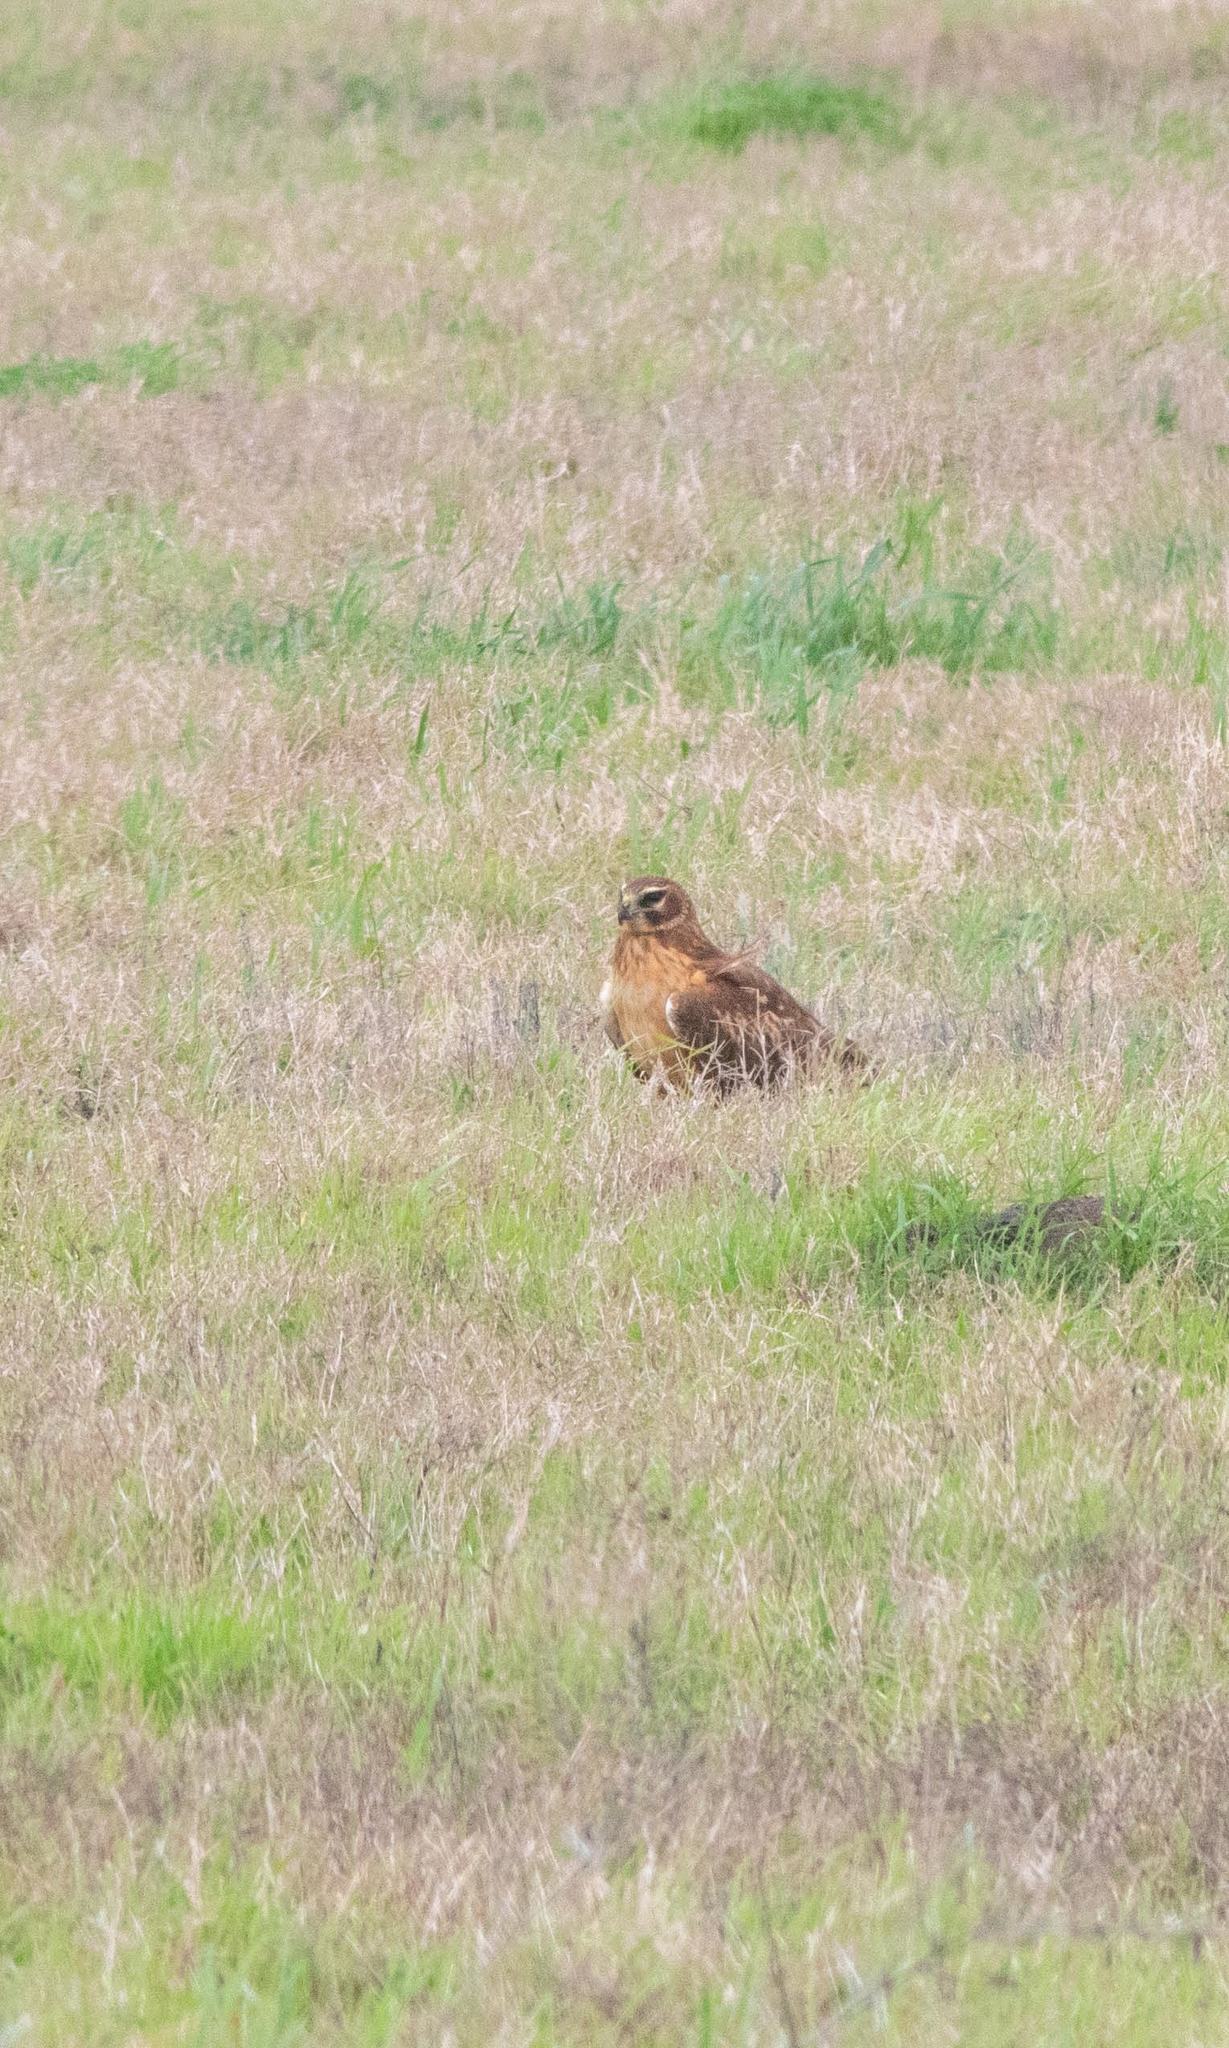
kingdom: Animalia
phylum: Chordata
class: Aves
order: Accipitriformes
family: Accipitridae
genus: Circus
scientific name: Circus cyaneus
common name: Hen harrier
